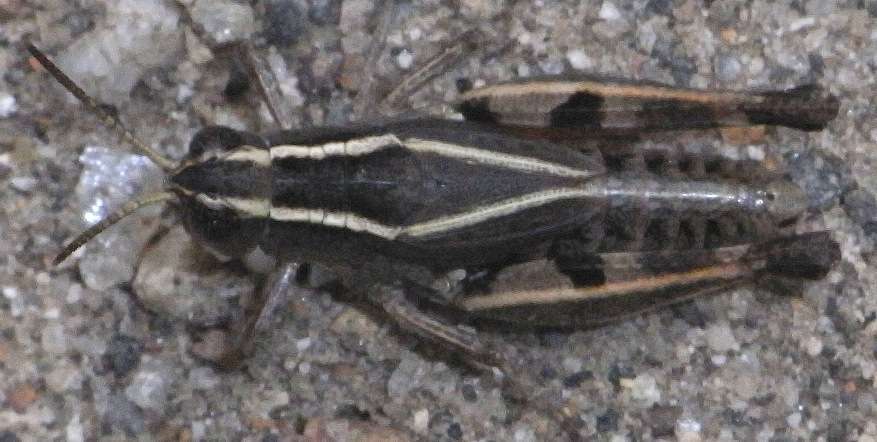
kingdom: Animalia
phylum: Arthropoda
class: Insecta
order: Orthoptera
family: Acrididae
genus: Phaulacridium
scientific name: Phaulacridium vittatum
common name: Wingless grasshopper
